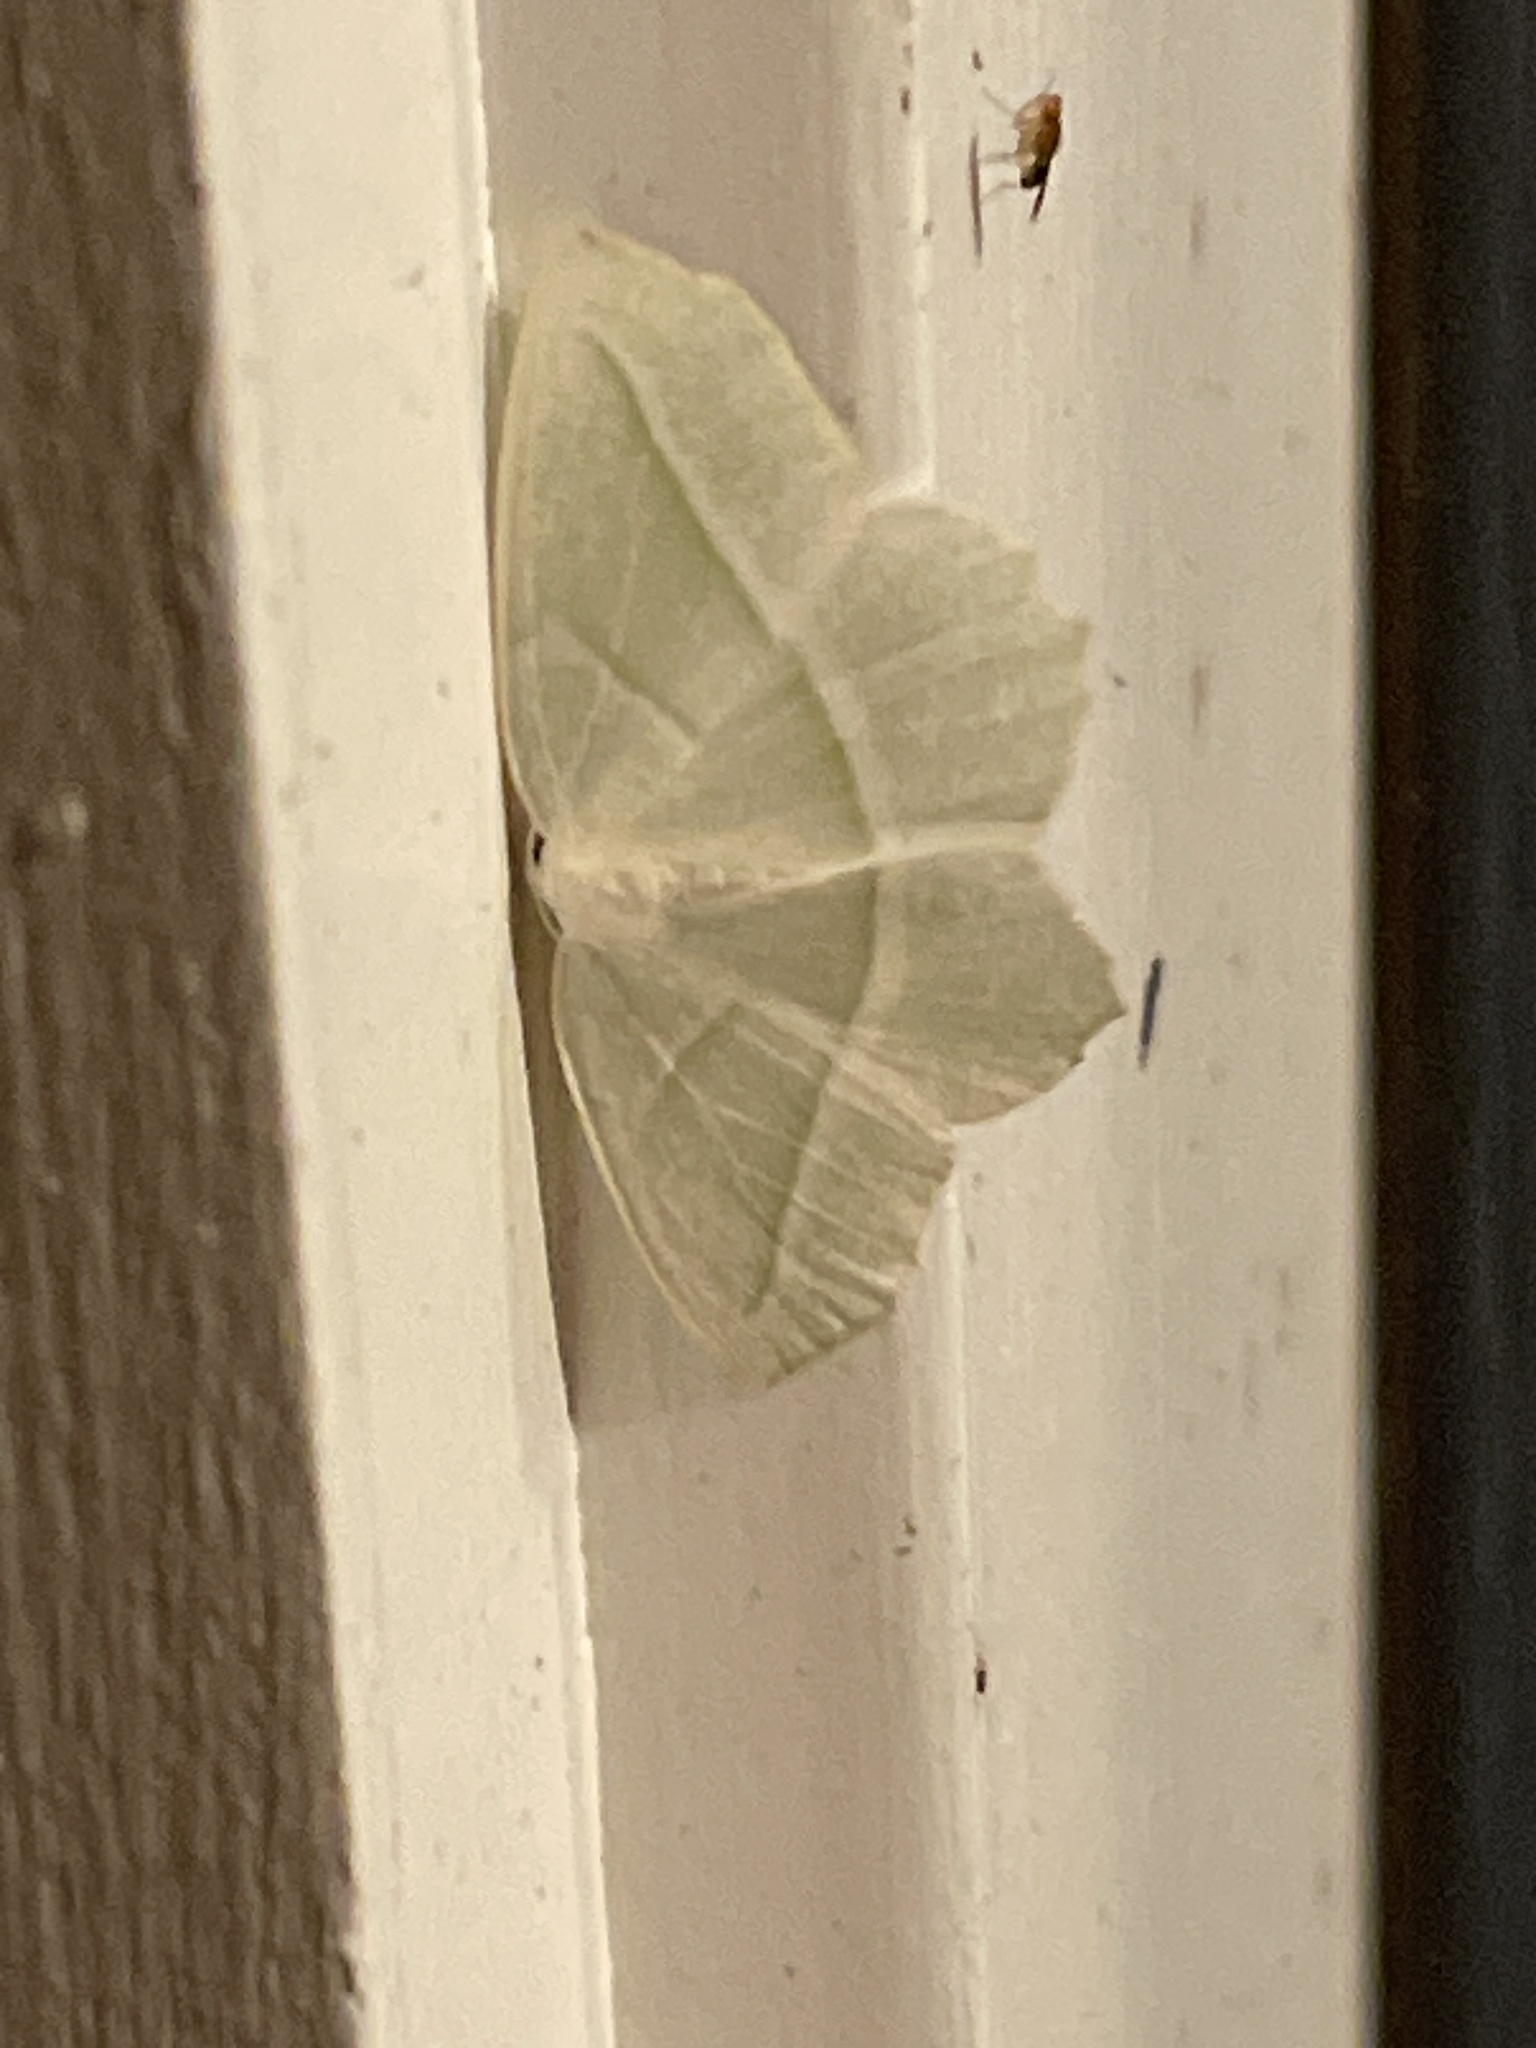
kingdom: Animalia
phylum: Arthropoda
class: Insecta
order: Lepidoptera
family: Geometridae
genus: Campaea
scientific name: Campaea perlata
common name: Fringed looper
